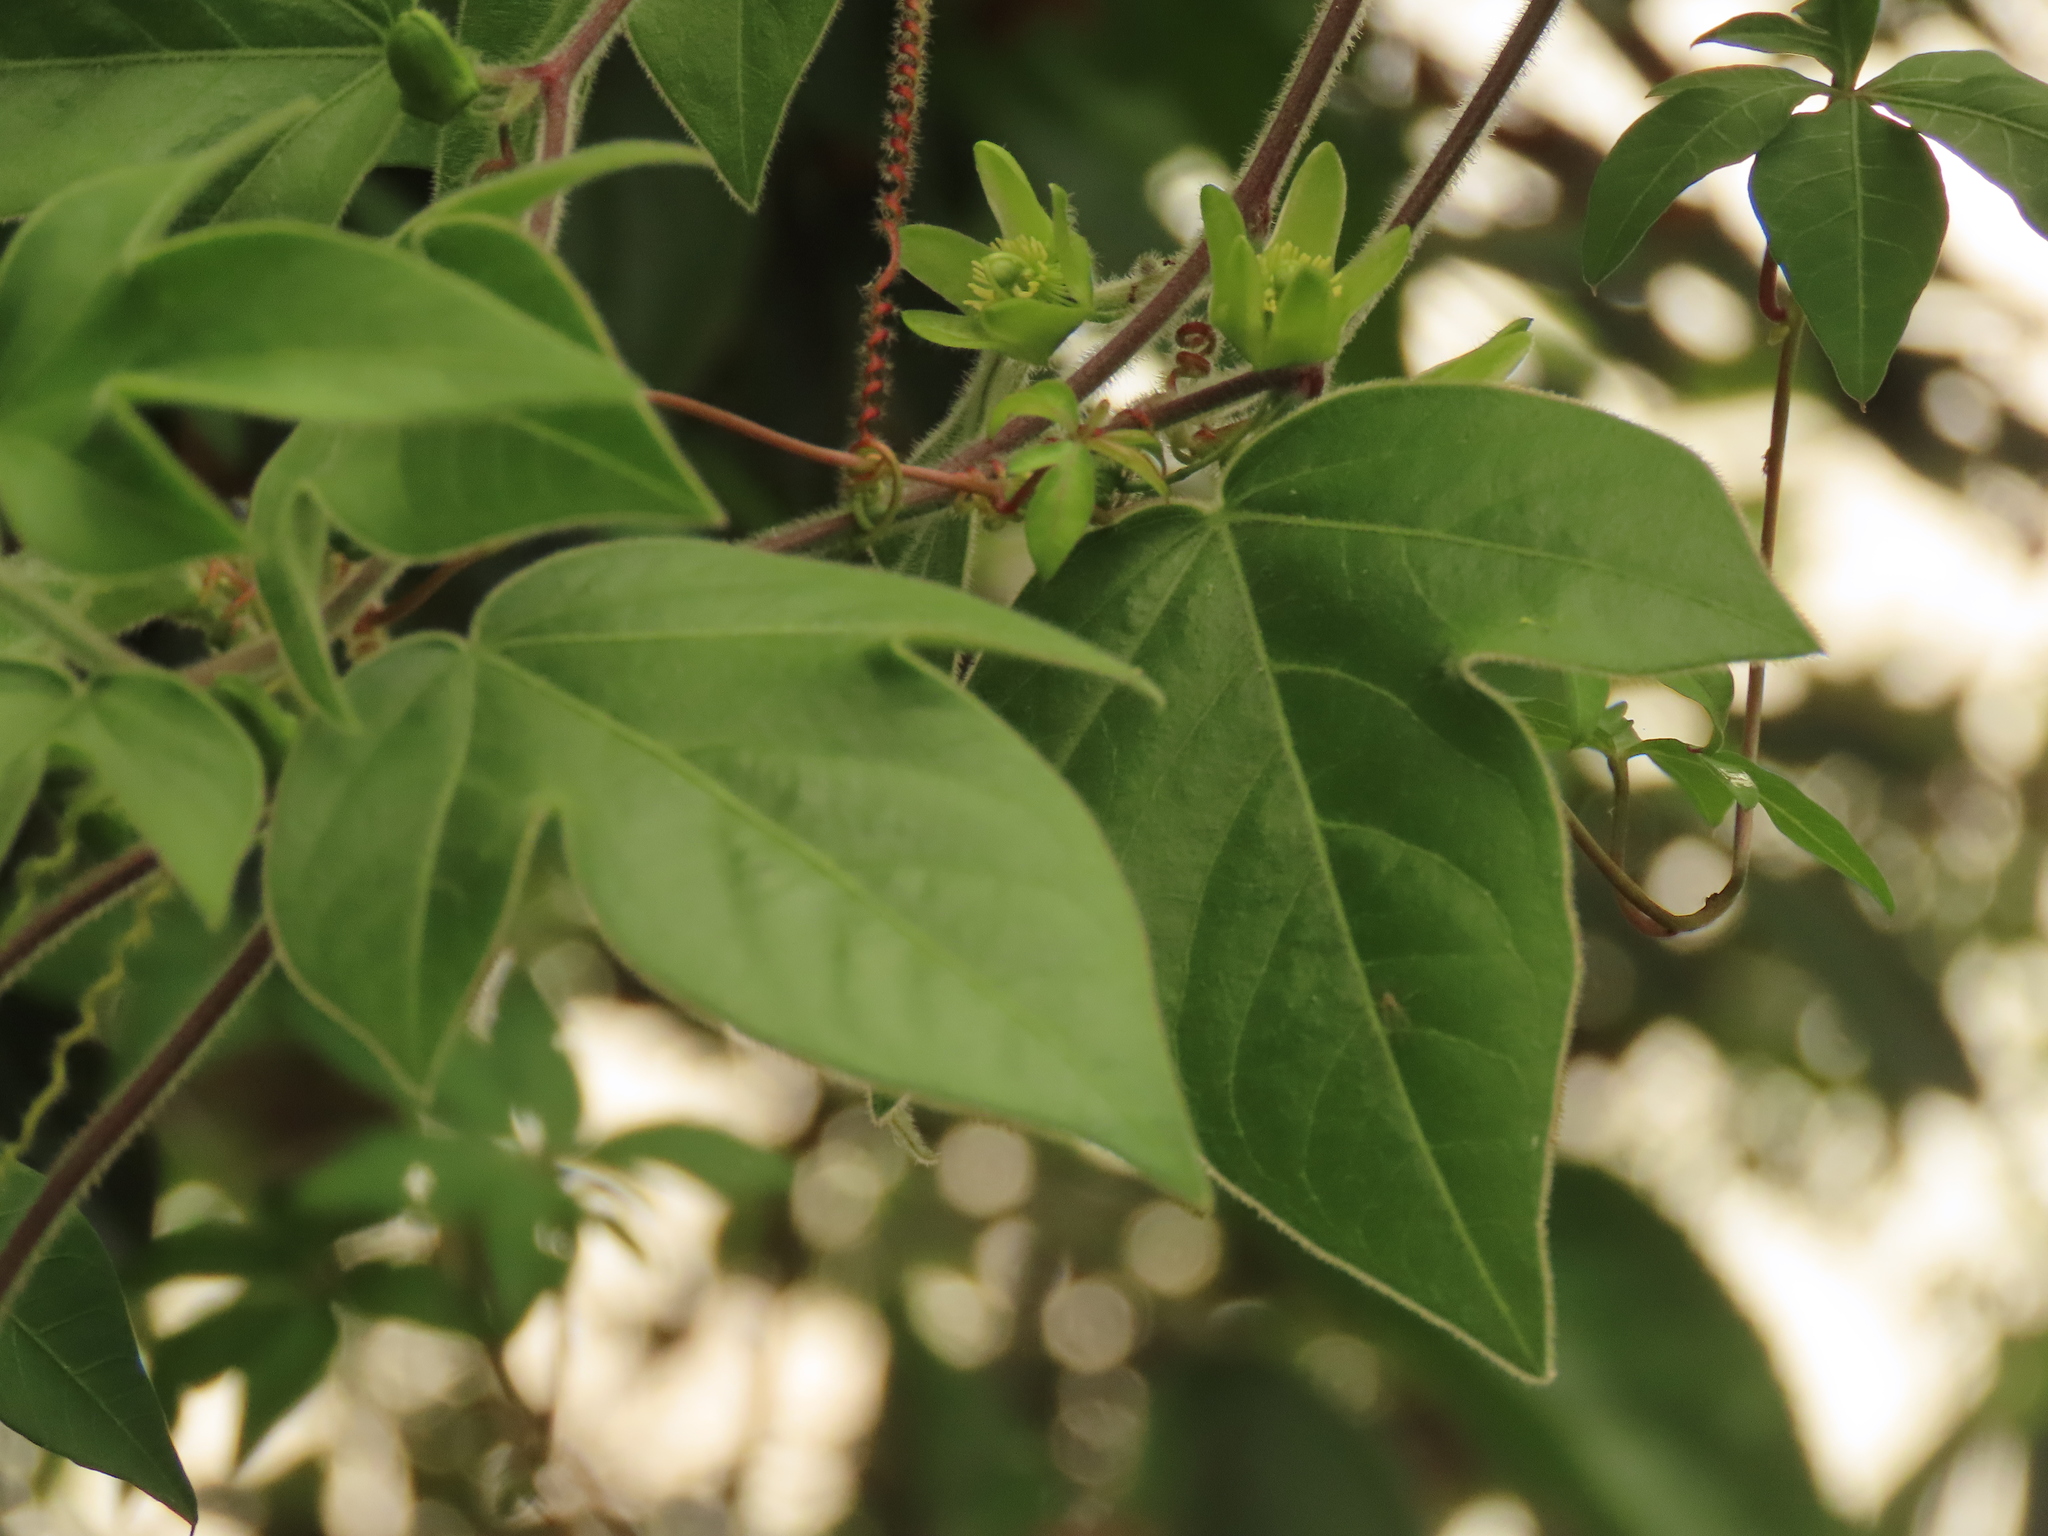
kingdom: Plantae
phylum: Tracheophyta
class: Magnoliopsida
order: Malpighiales
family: Passifloraceae
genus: Passiflora
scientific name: Passiflora suberosa
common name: Wild passionfruit
